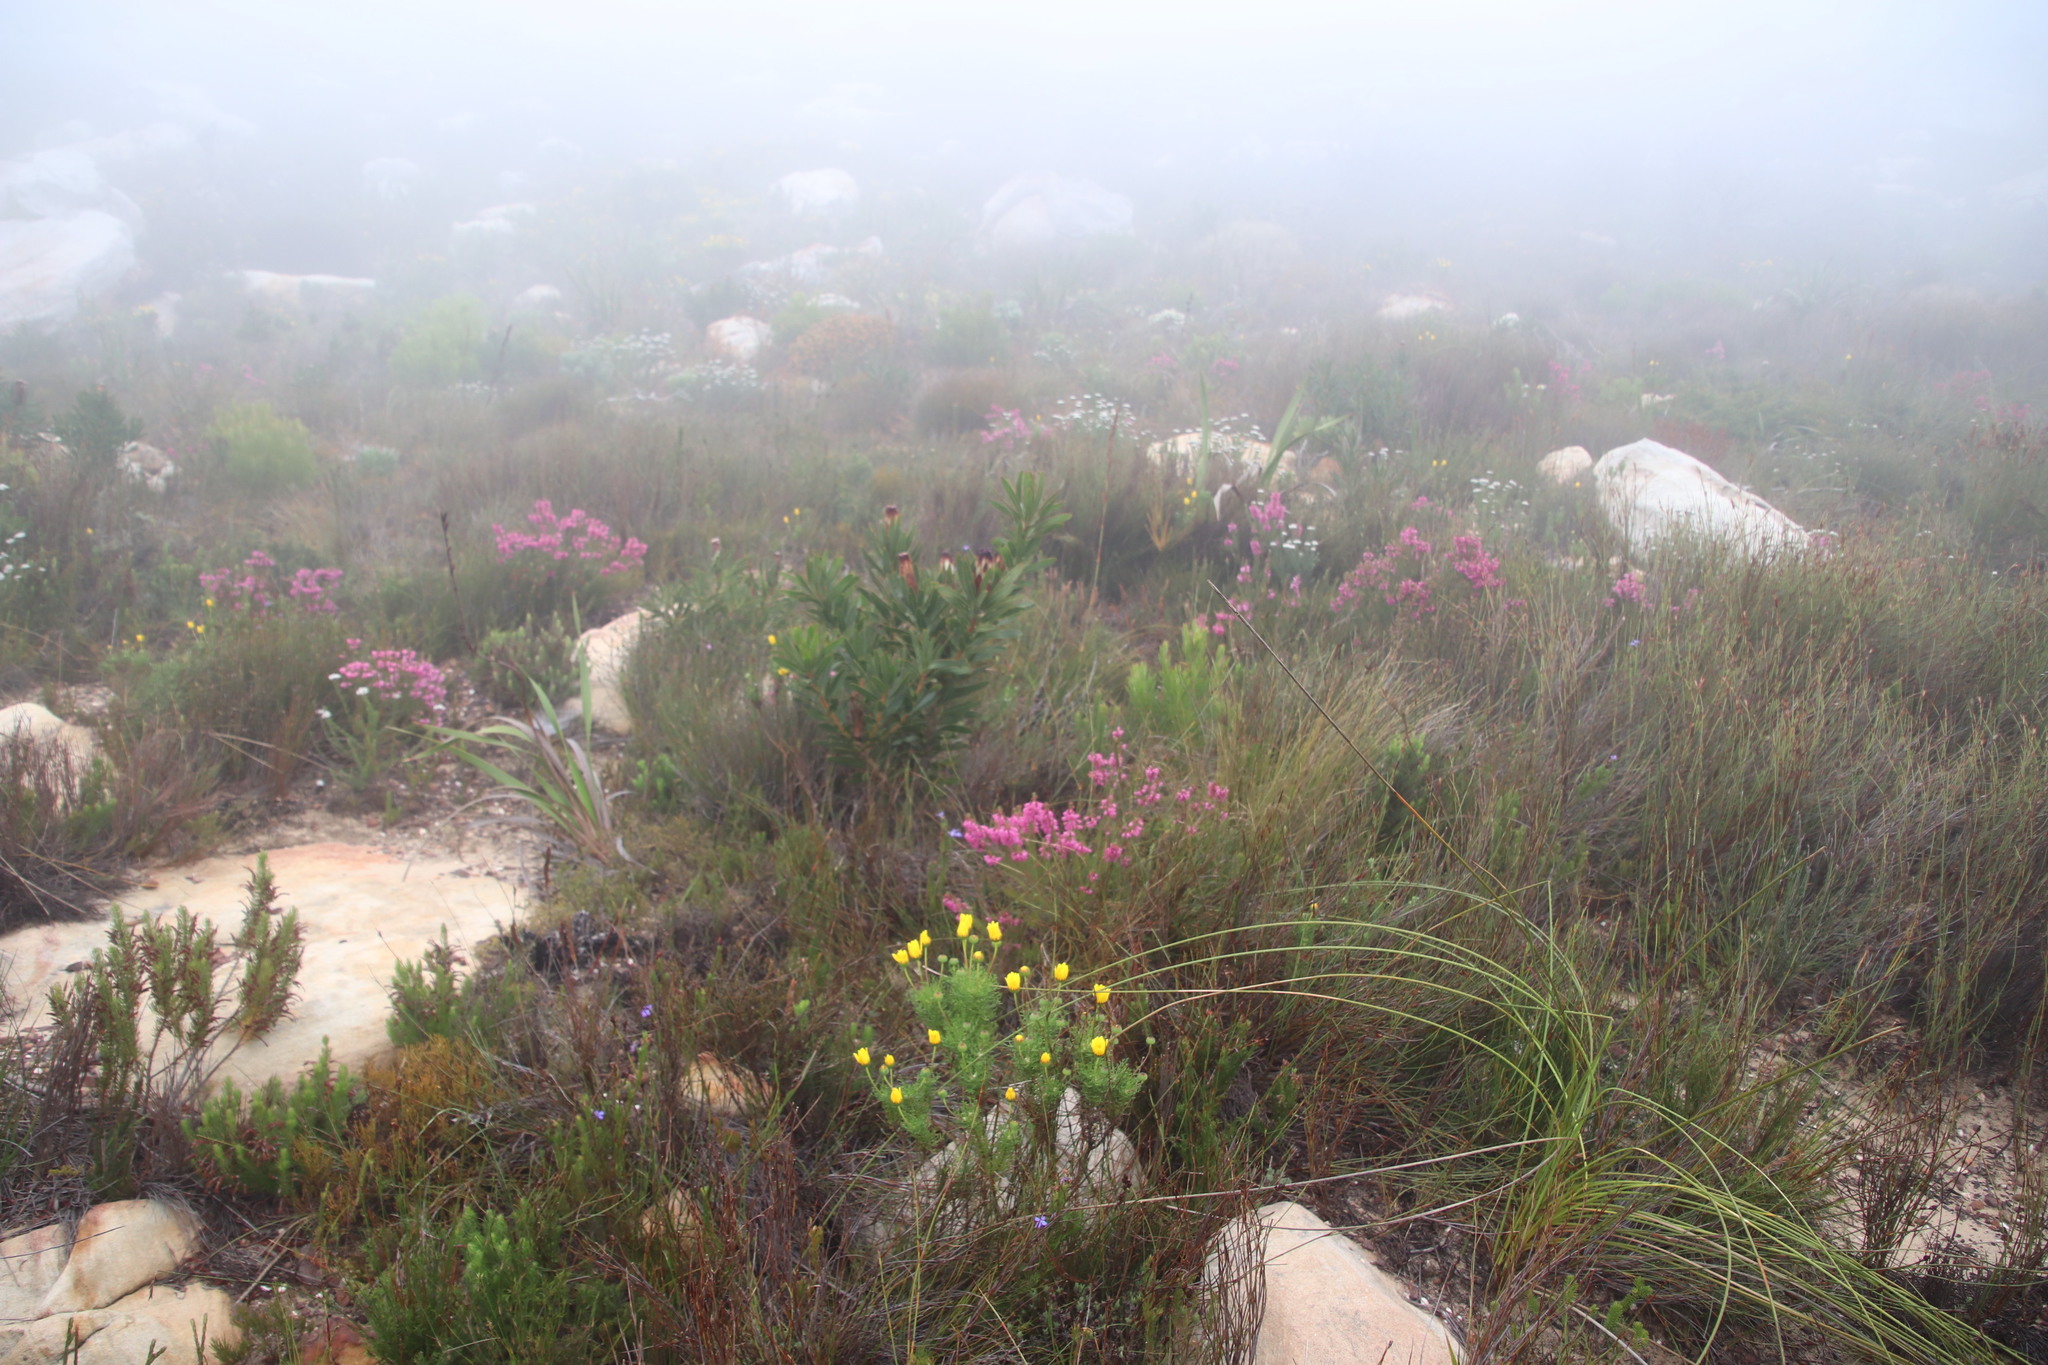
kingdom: Plantae
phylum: Tracheophyta
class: Magnoliopsida
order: Ericales
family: Ericaceae
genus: Erica
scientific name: Erica abietina
